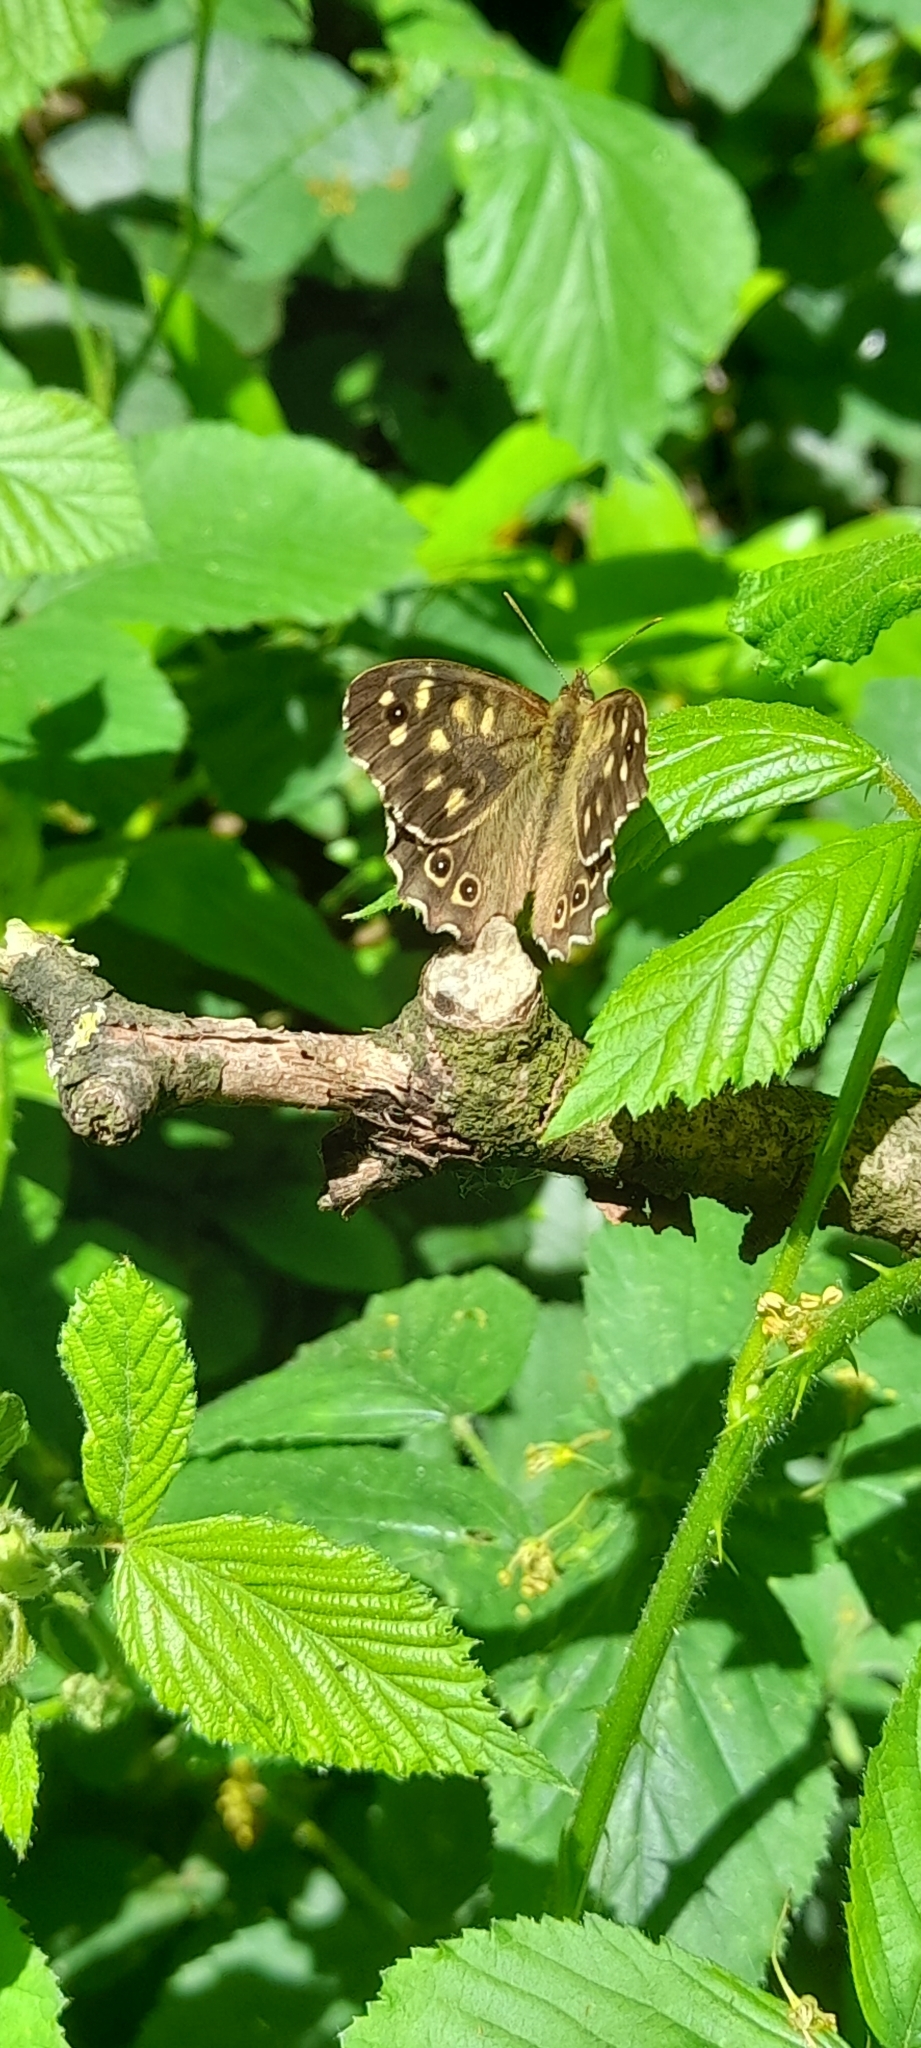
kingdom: Animalia
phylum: Arthropoda
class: Insecta
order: Lepidoptera
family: Nymphalidae
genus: Pararge
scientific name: Pararge aegeria
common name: Speckled wood
